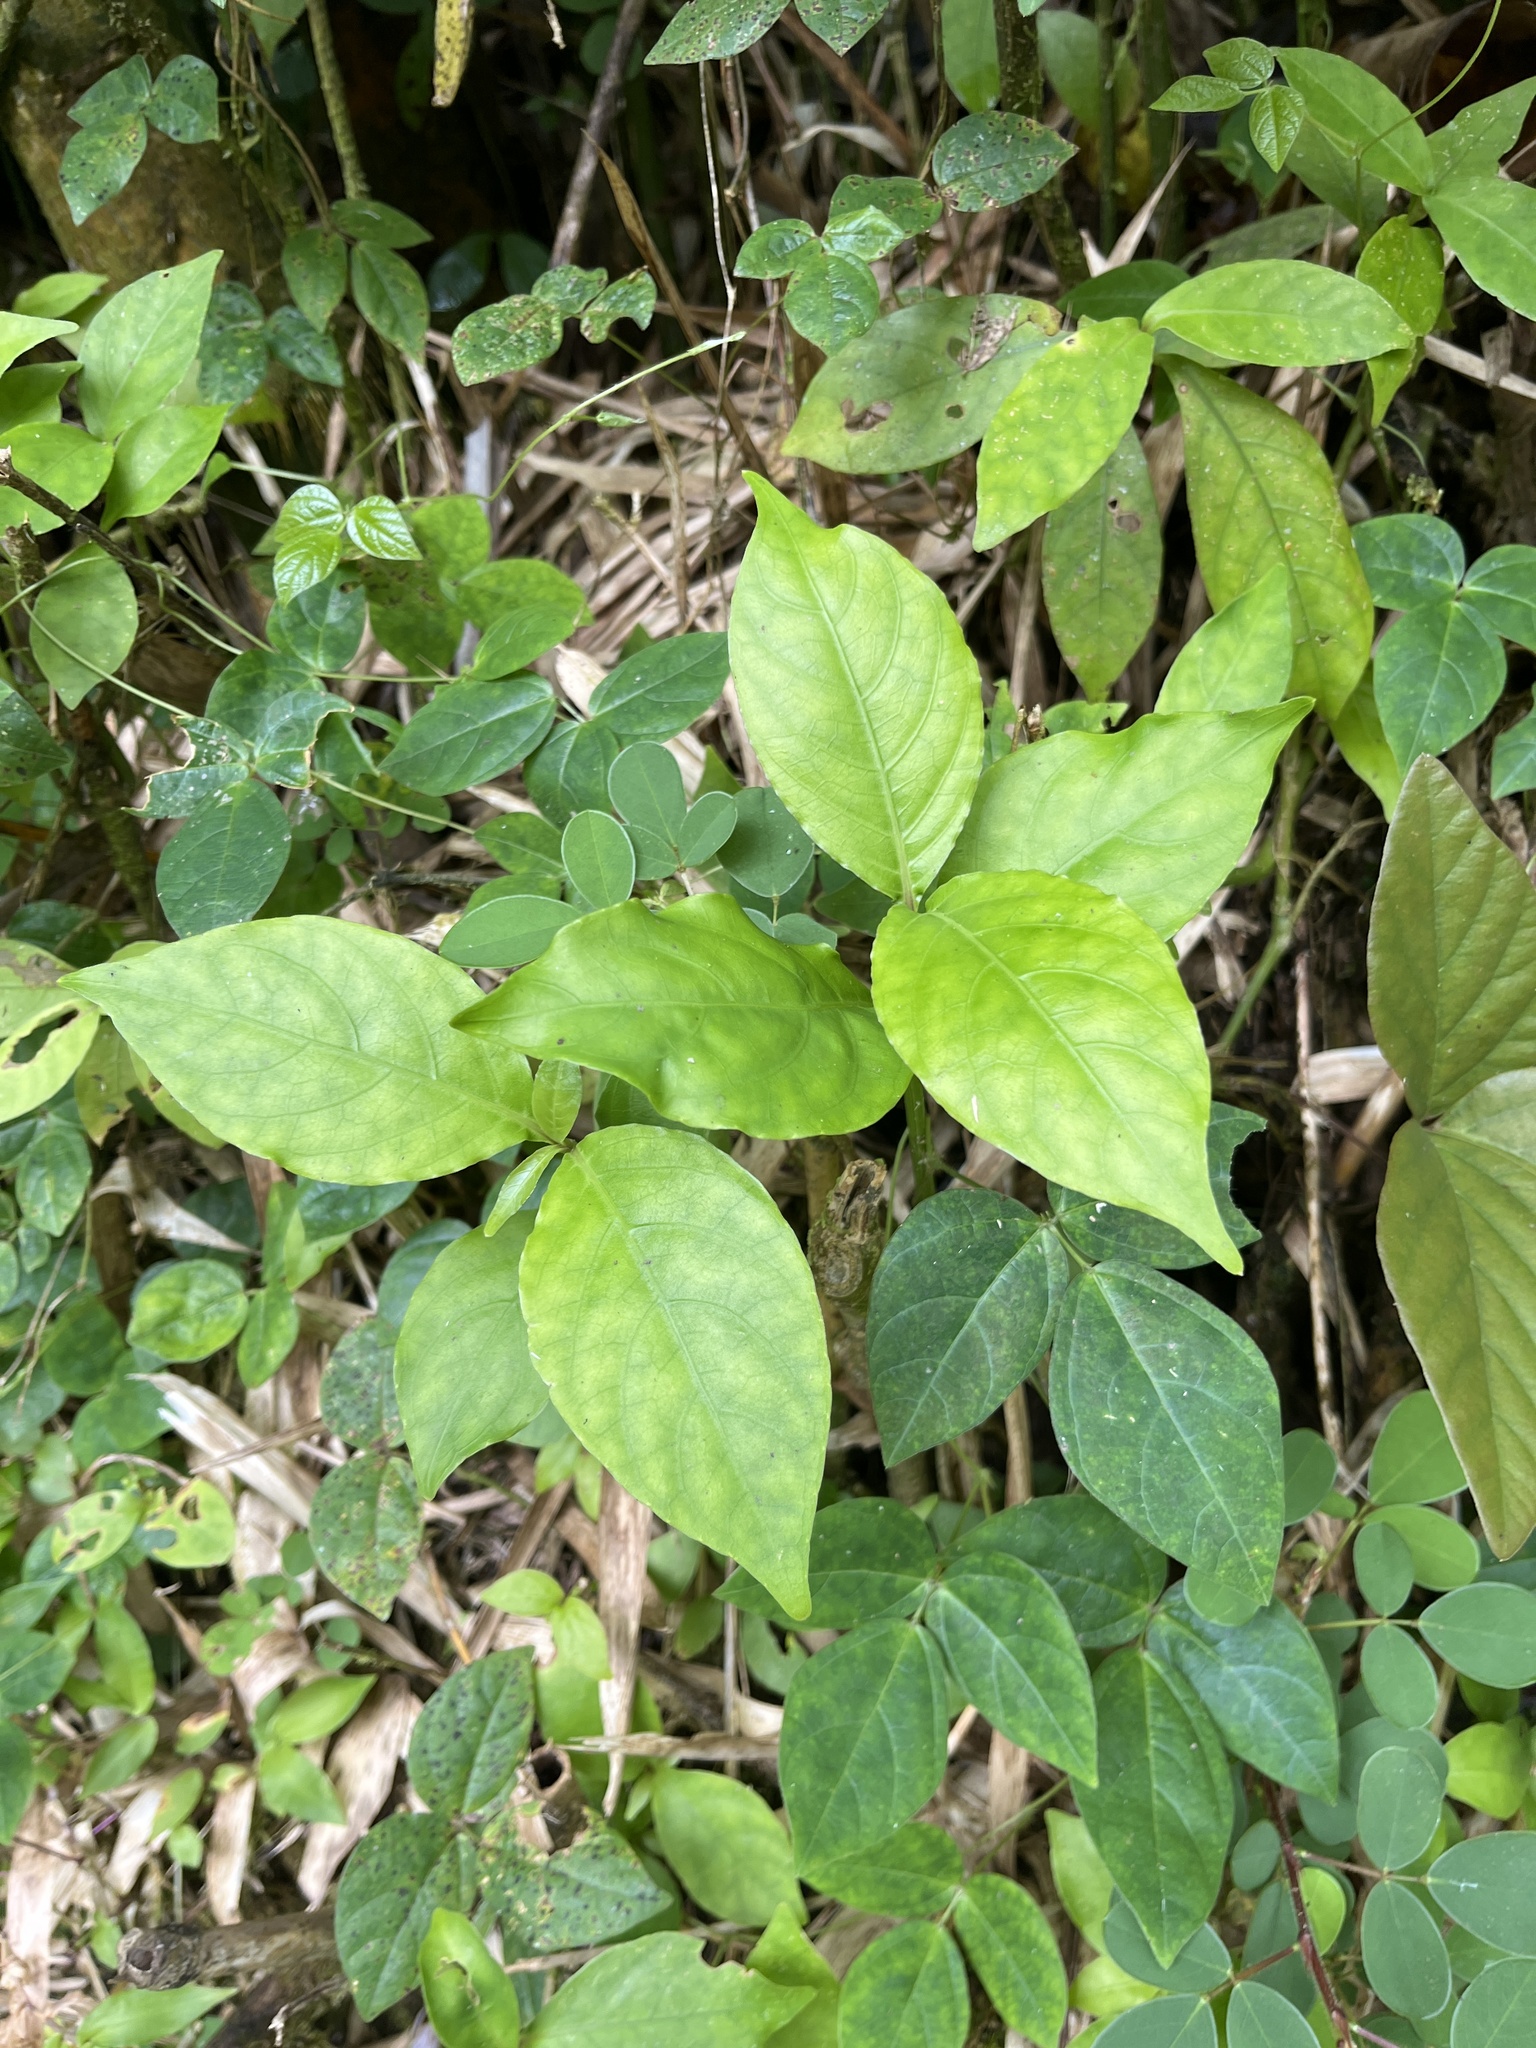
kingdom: Plantae
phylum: Tracheophyta
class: Magnoliopsida
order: Lamiales
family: Acanthaceae
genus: Odontonema
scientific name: Odontonema cuspidatum
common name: Mottled toothedthread
